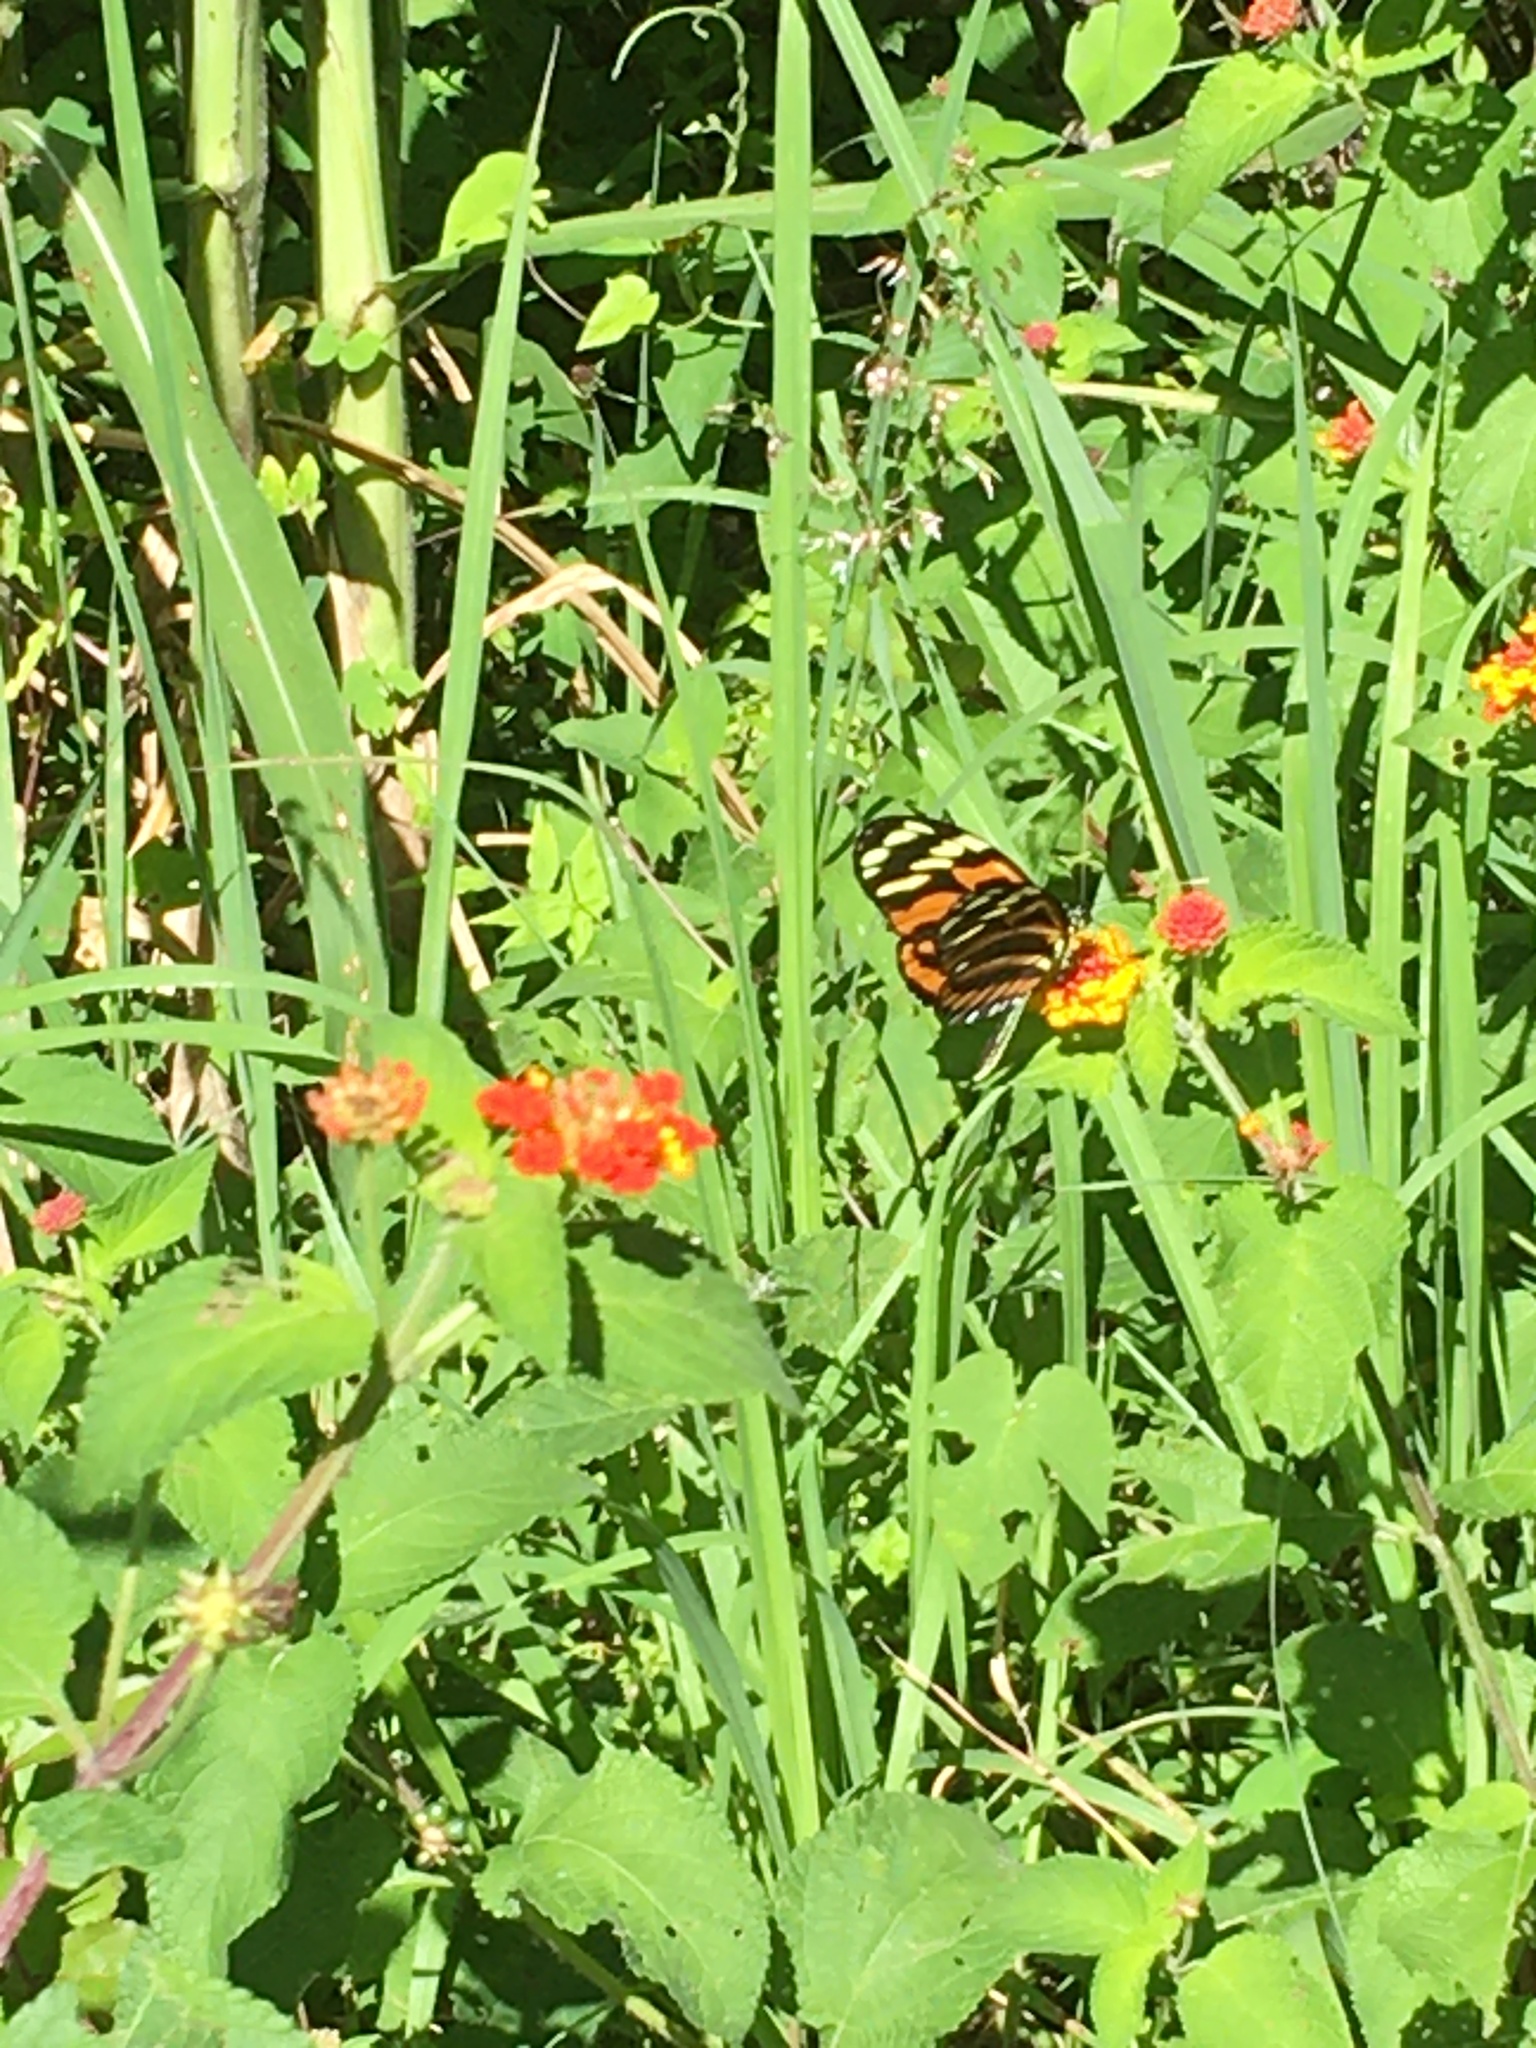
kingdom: Animalia
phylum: Arthropoda
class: Insecta
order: Lepidoptera
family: Nymphalidae
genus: Heliconius
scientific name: Heliconius ismenius
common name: Ismenius tiger
